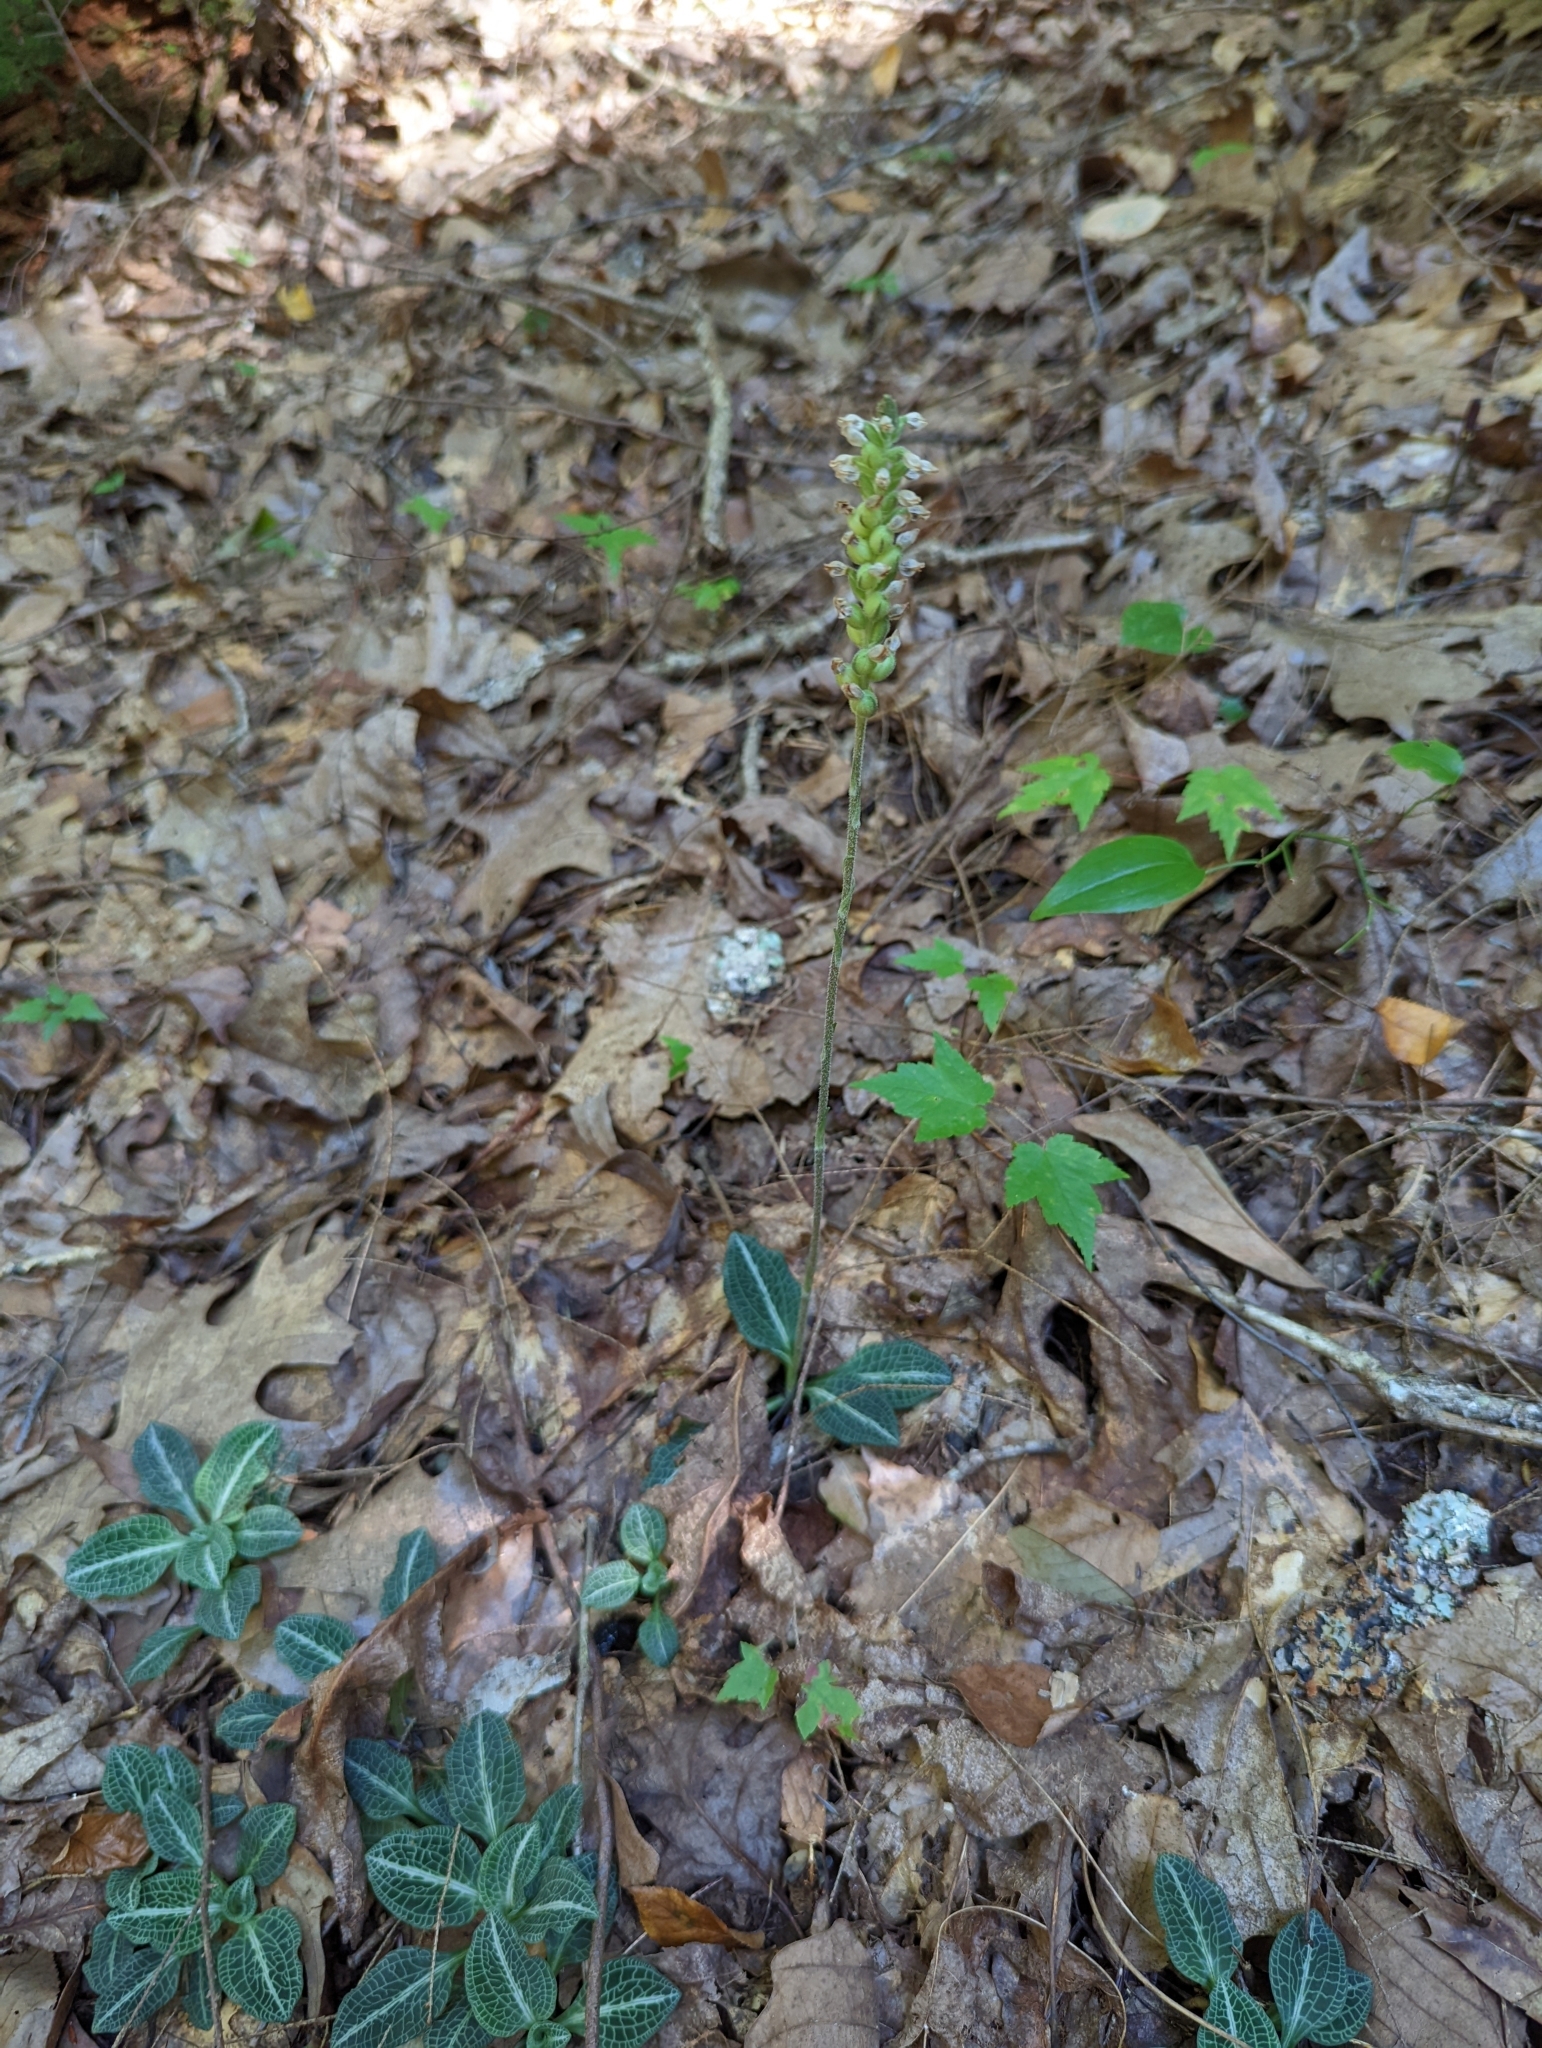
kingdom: Plantae
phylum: Tracheophyta
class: Liliopsida
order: Asparagales
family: Orchidaceae
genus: Goodyera
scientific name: Goodyera pubescens
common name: Downy rattlesnake-plantain
